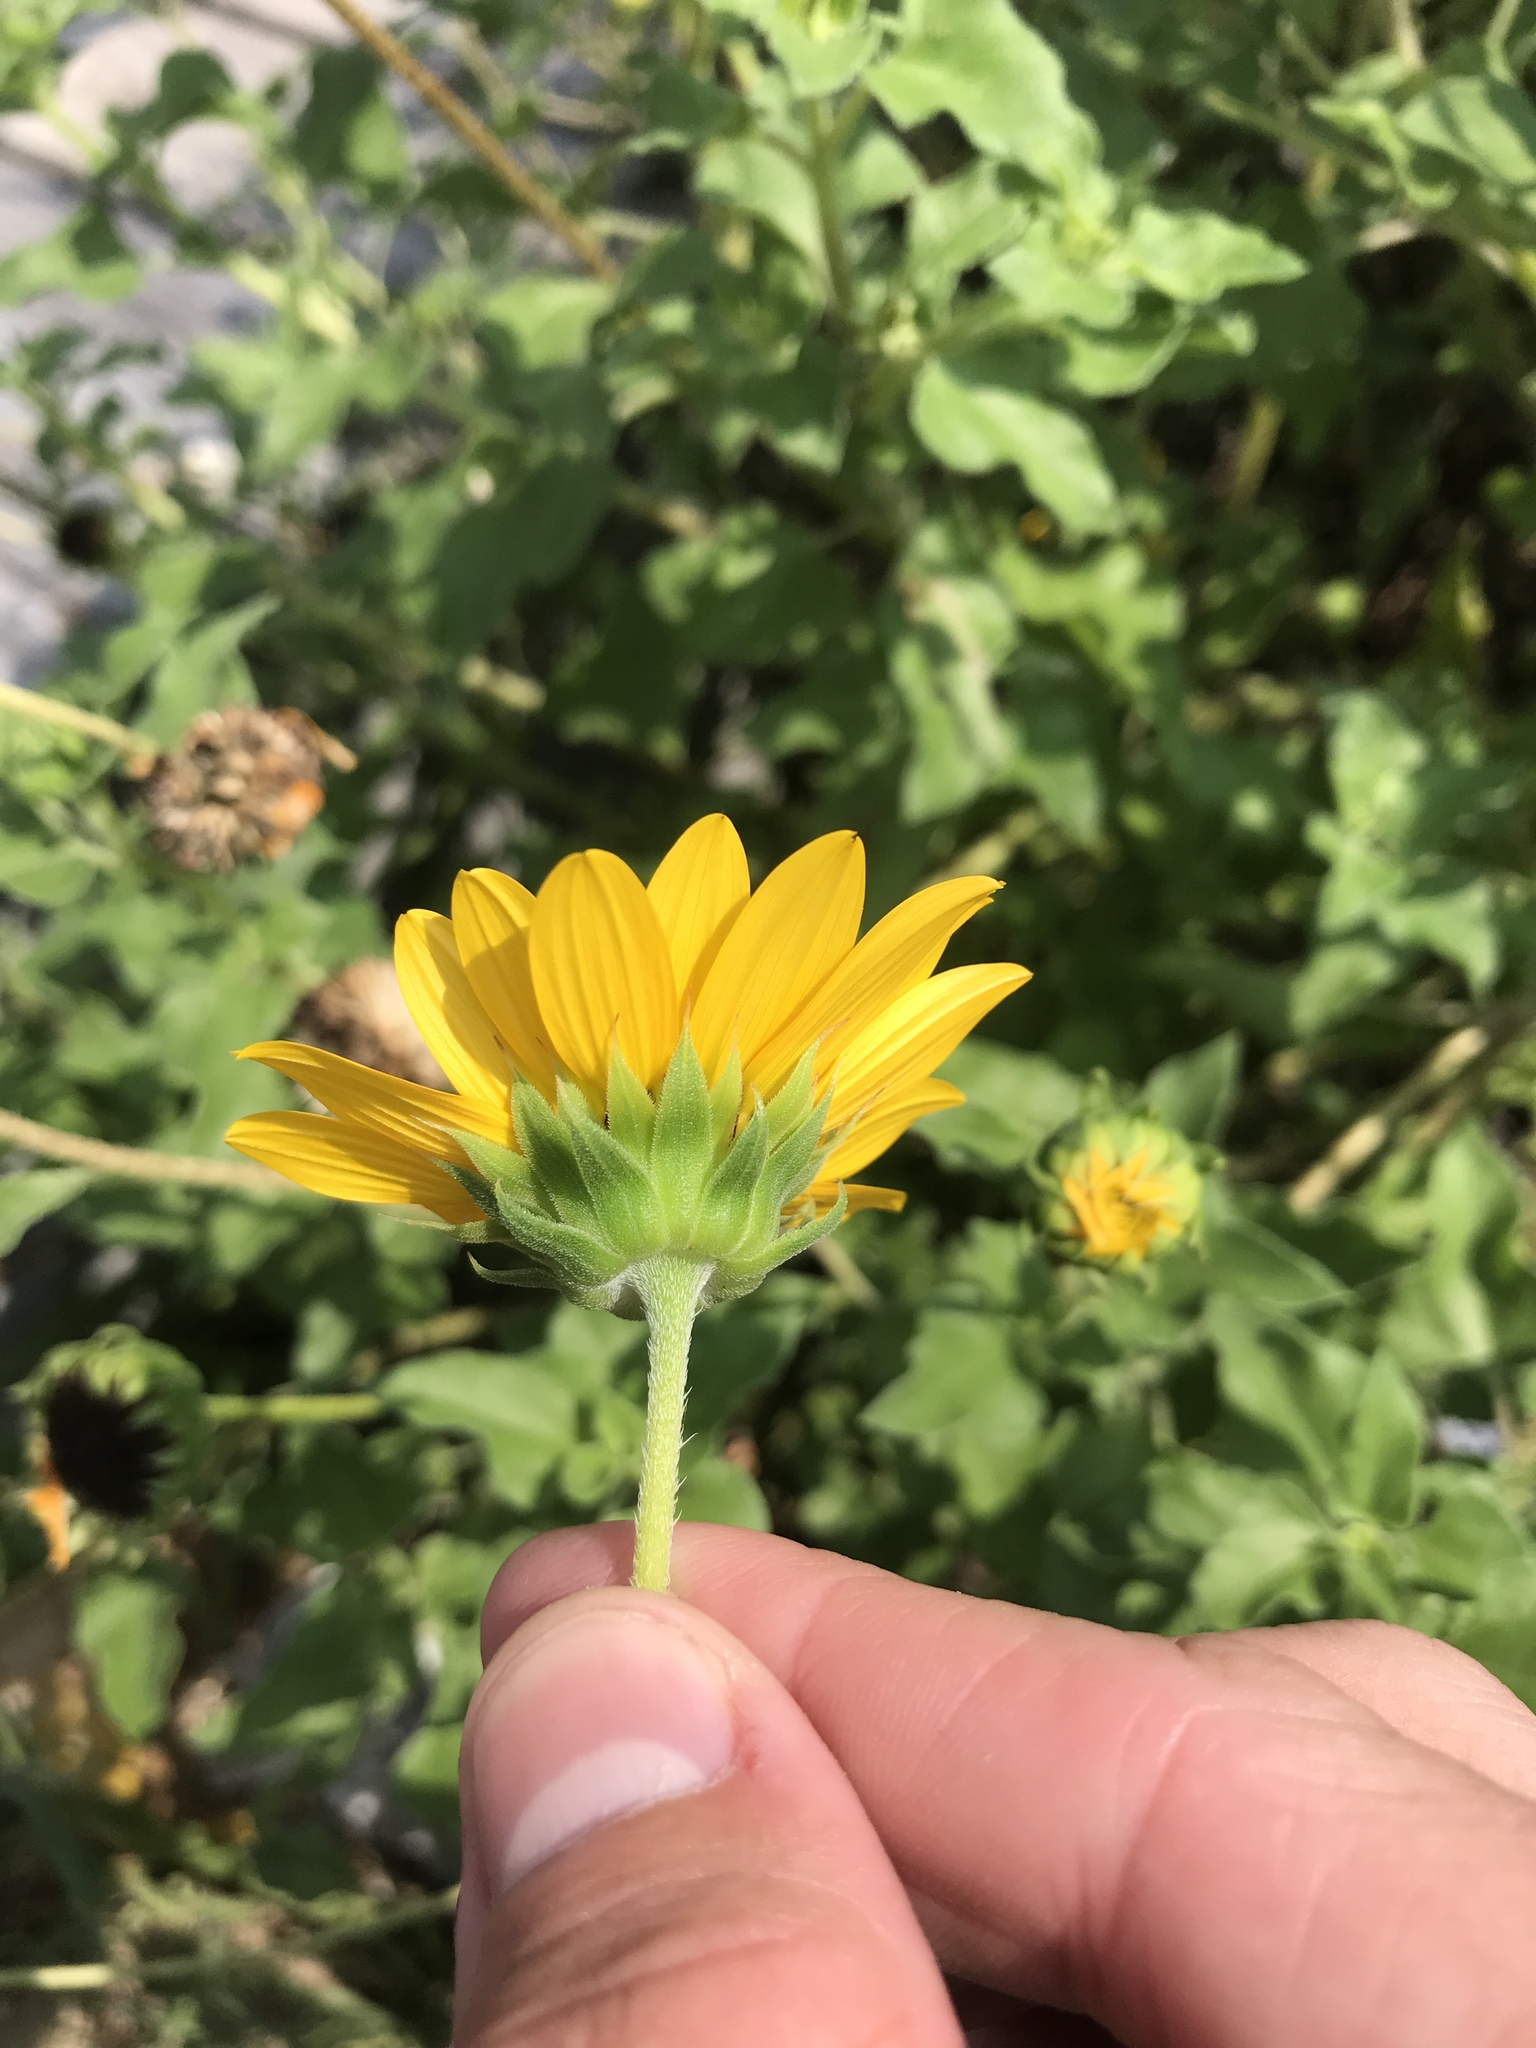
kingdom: Plantae
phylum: Tracheophyta
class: Magnoliopsida
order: Asterales
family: Asteraceae
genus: Helianthus
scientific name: Helianthus debilis
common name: Weak sunflower
